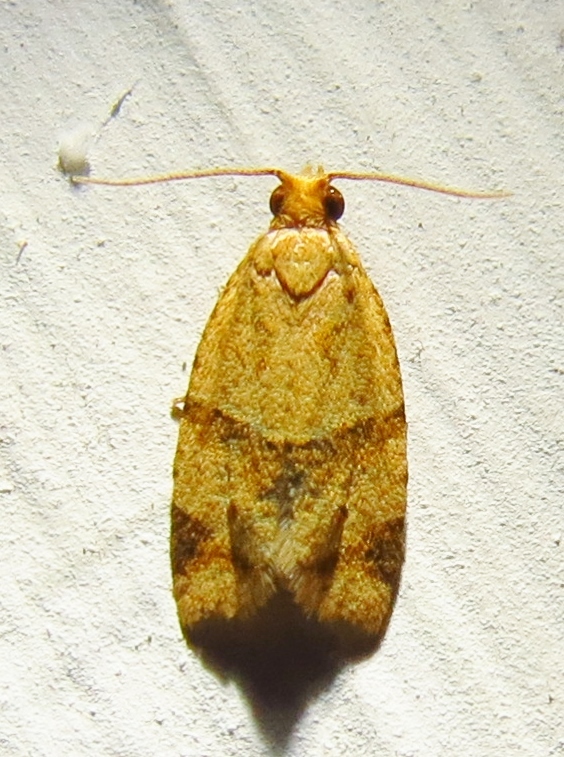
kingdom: Animalia
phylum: Arthropoda
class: Insecta
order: Lepidoptera
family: Tortricidae
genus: Clepsis
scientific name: Clepsis peritana
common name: Garden tortrix
